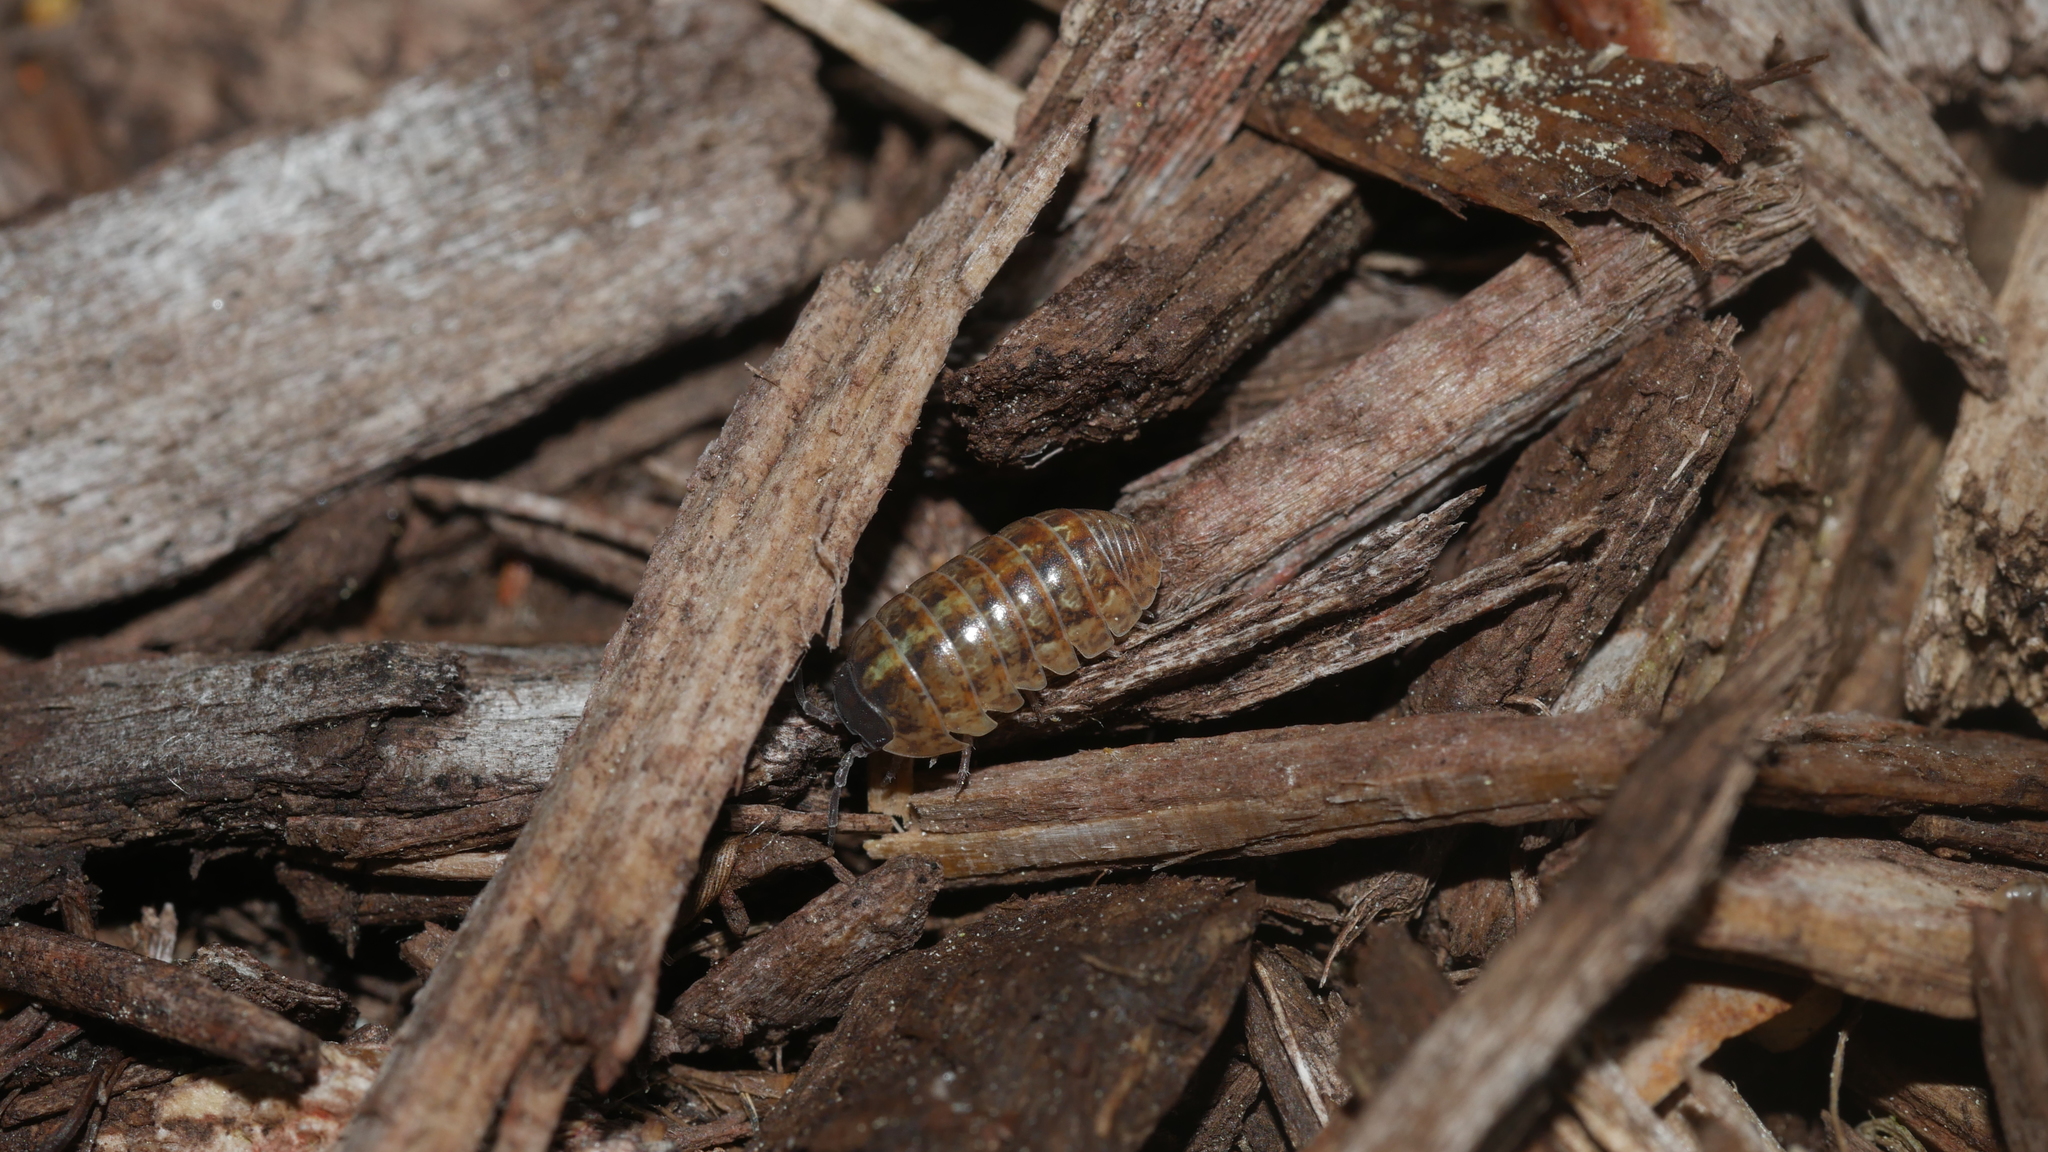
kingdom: Animalia
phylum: Arthropoda
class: Malacostraca
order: Isopoda
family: Armadillidiidae
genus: Armadillidium
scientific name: Armadillidium vulgare
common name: Common pill woodlouse
